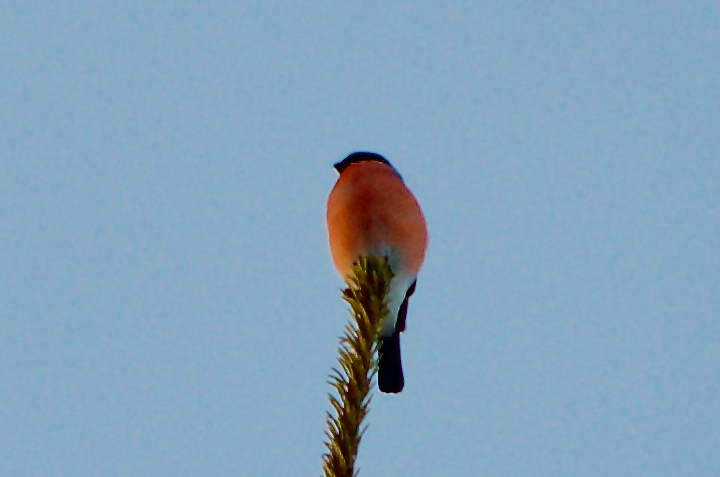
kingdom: Animalia
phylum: Chordata
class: Aves
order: Passeriformes
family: Fringillidae
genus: Pyrrhula
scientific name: Pyrrhula pyrrhula
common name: Eurasian bullfinch
